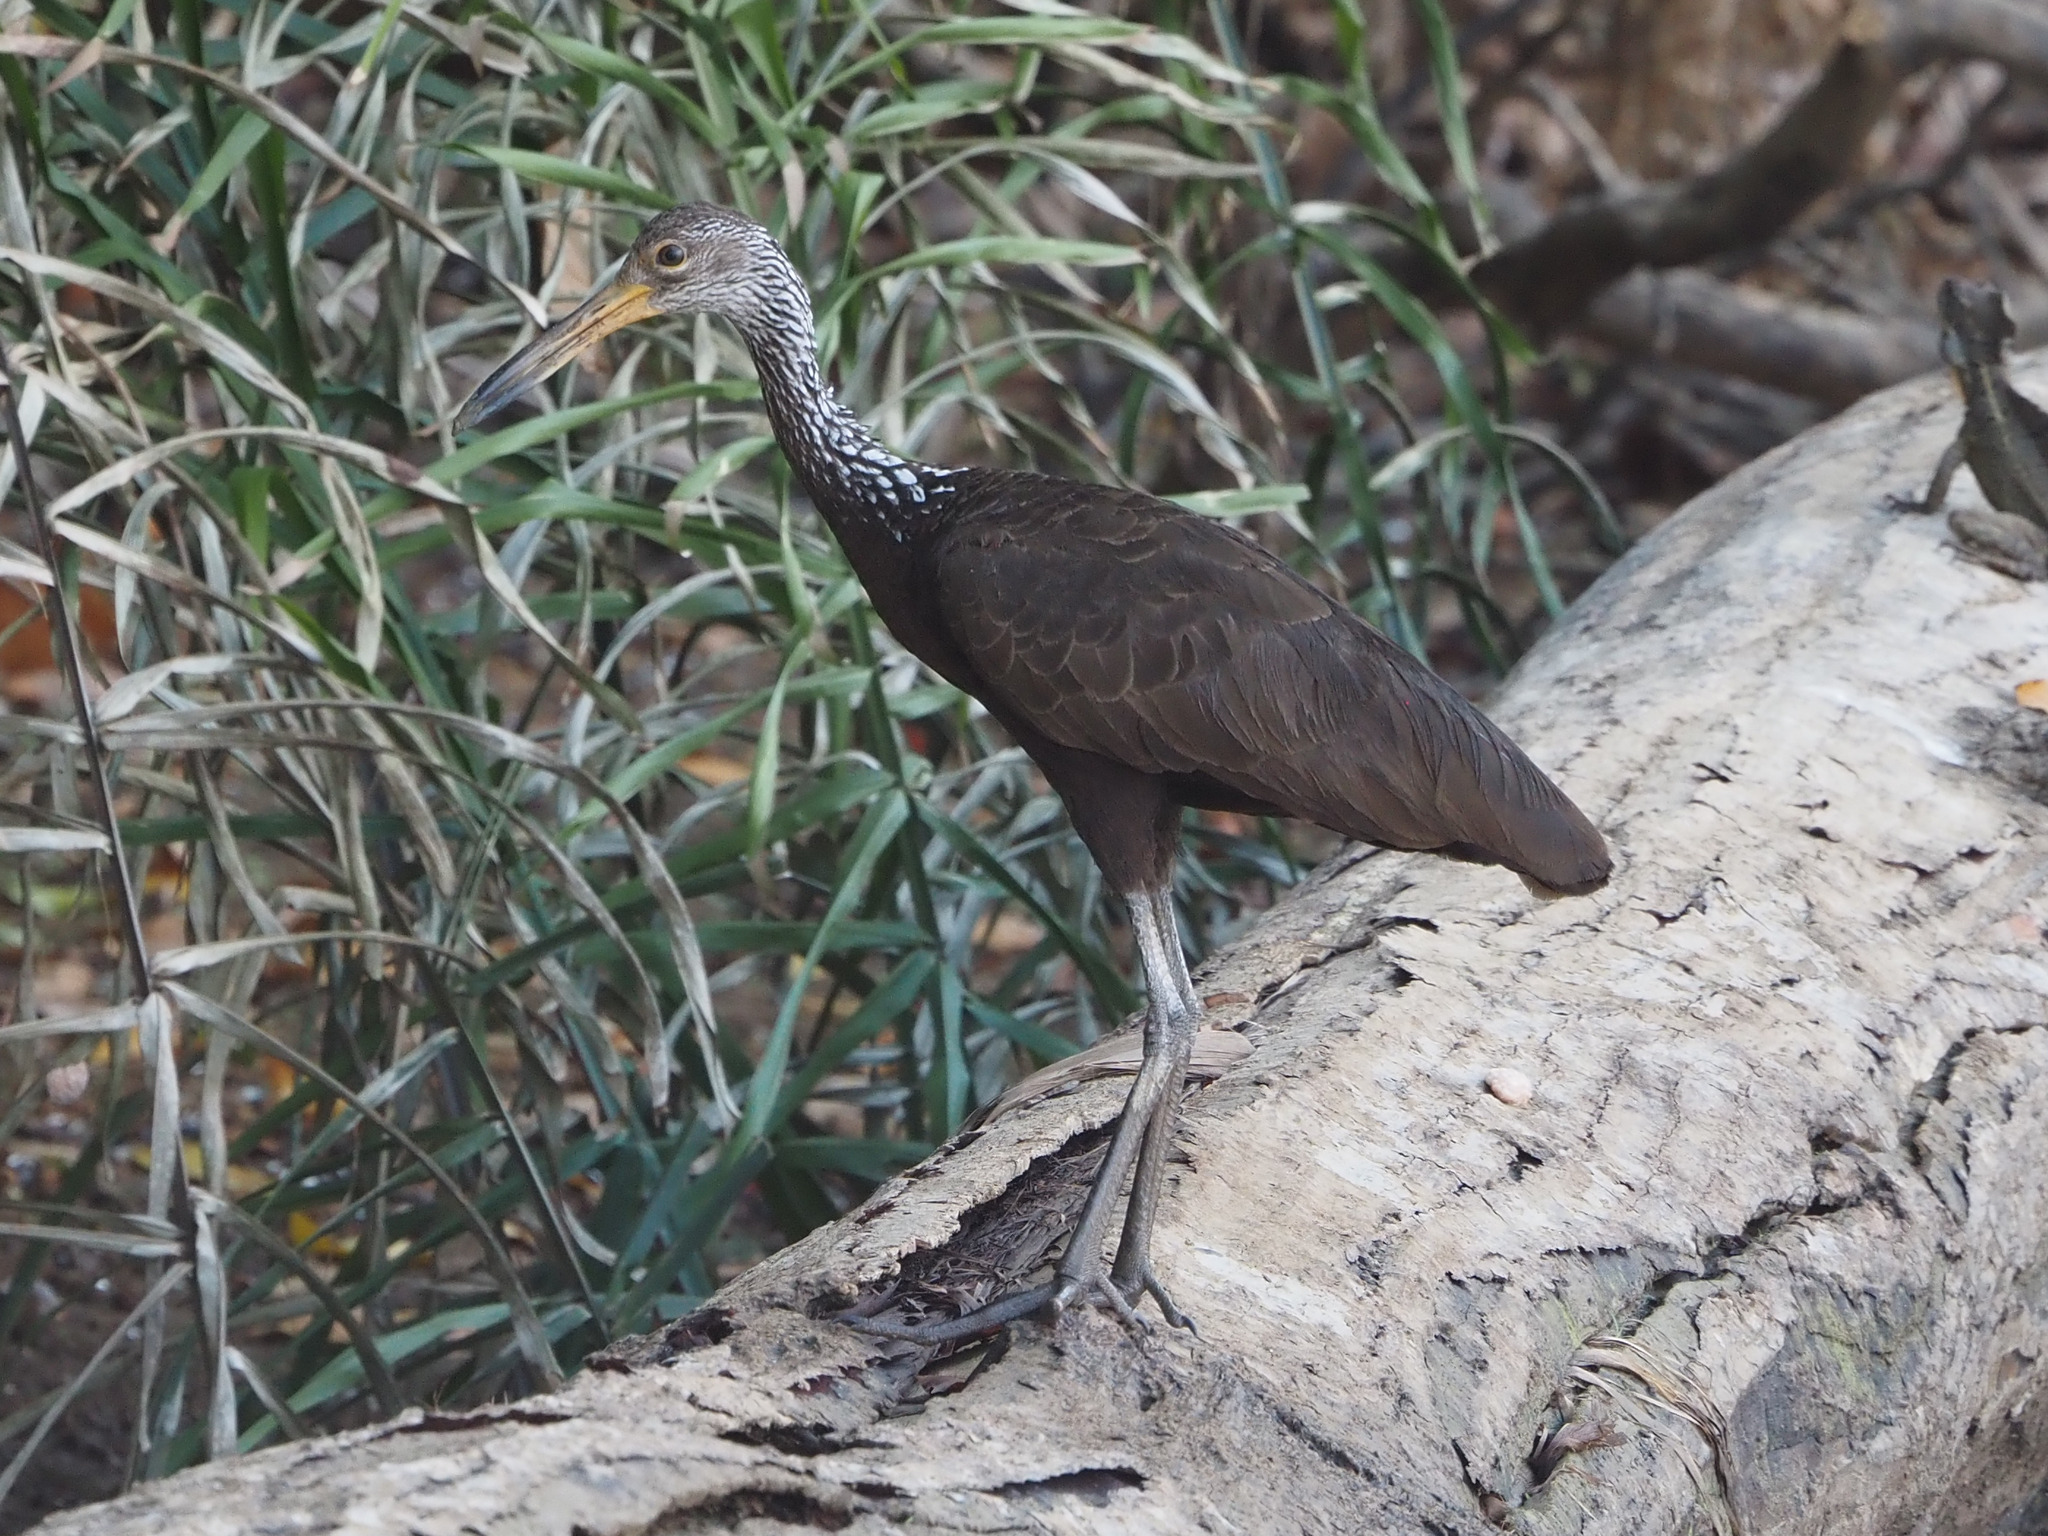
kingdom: Animalia
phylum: Chordata
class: Aves
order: Gruiformes
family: Aramidae
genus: Aramus
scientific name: Aramus guarauna
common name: Limpkin
